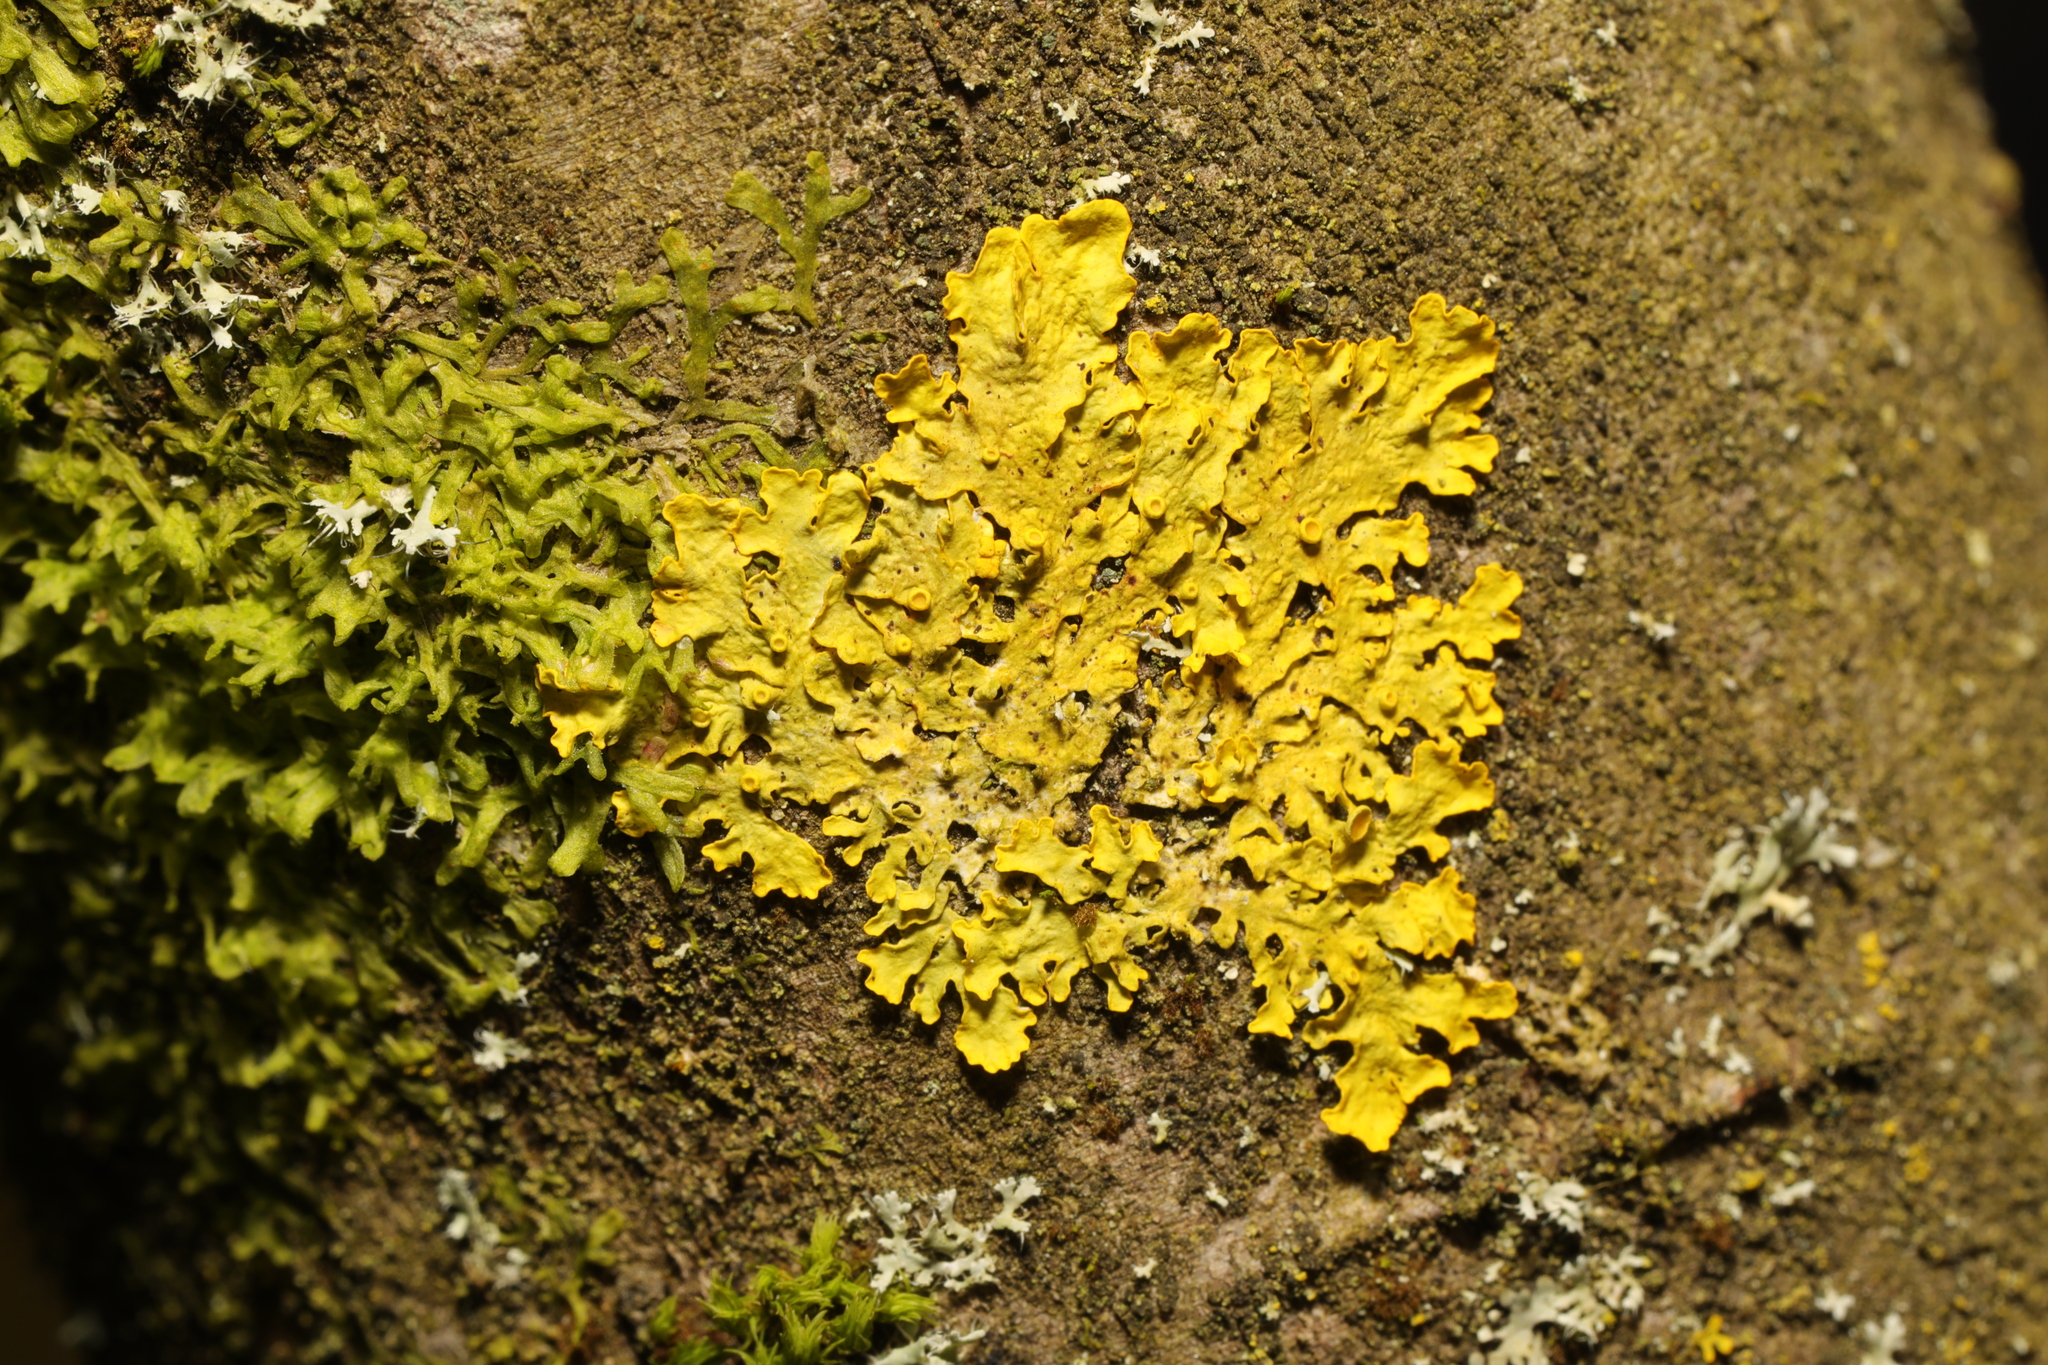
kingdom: Fungi
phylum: Ascomycota
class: Lecanoromycetes
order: Teloschistales
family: Teloschistaceae
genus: Xanthoria
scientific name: Xanthoria parietina
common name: Common orange lichen
